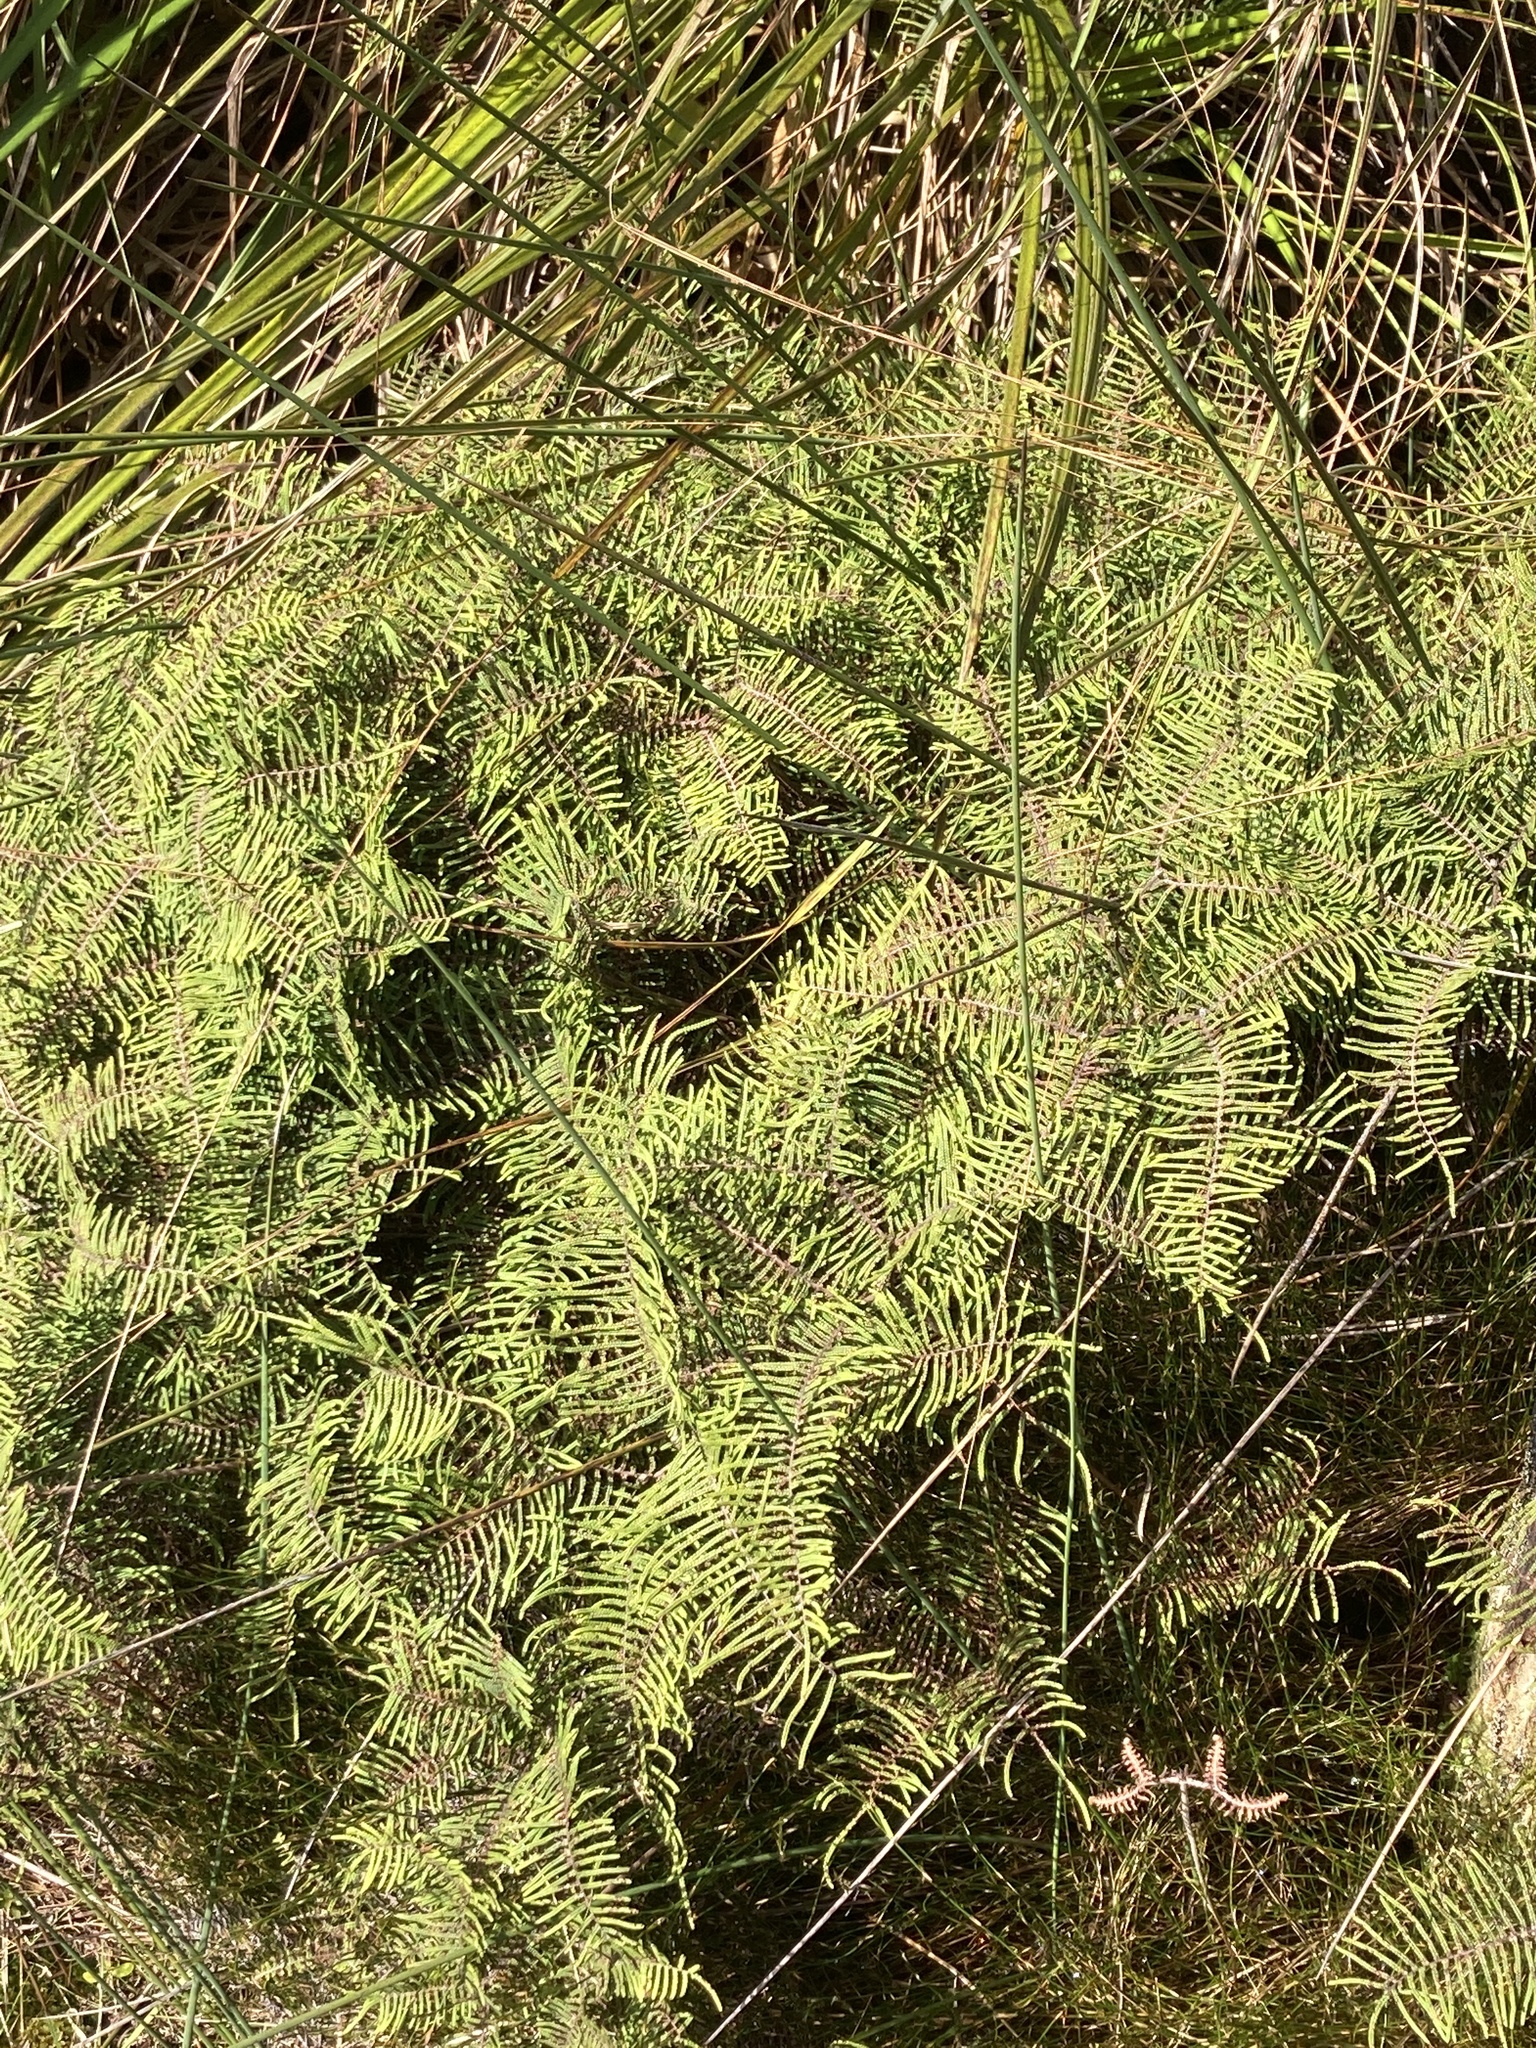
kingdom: Plantae
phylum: Tracheophyta
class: Polypodiopsida
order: Gleicheniales
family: Gleicheniaceae
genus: Gleichenia
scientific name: Gleichenia
